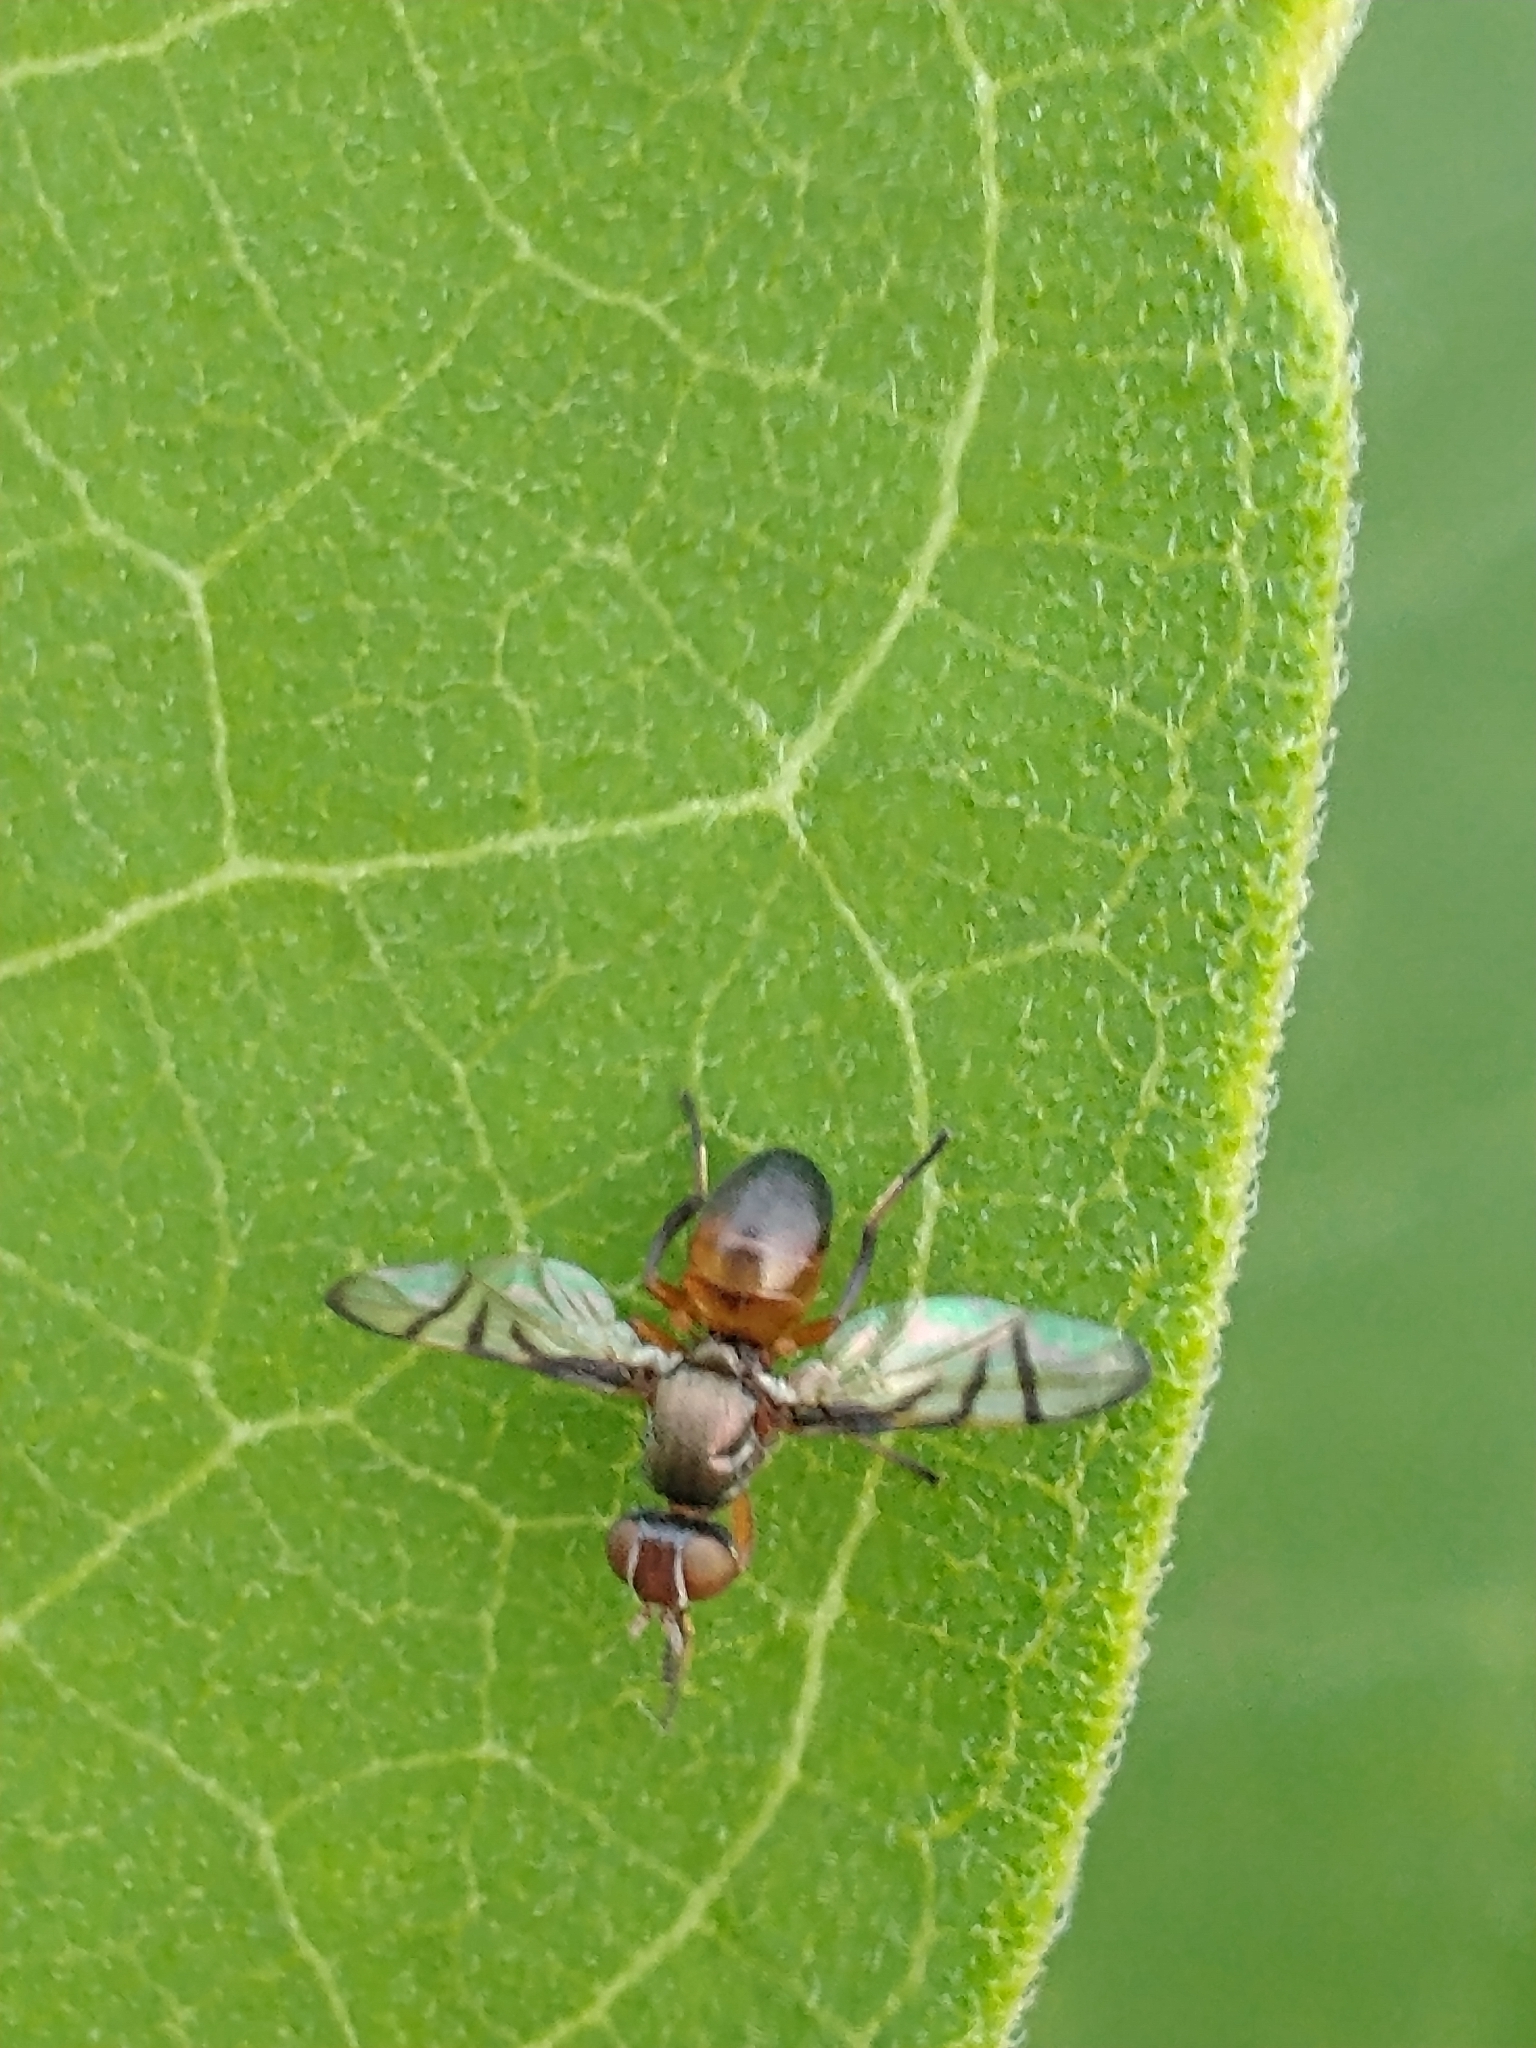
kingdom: Animalia
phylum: Arthropoda
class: Insecta
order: Diptera
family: Platystomatidae
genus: Rivellia
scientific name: Rivellia
